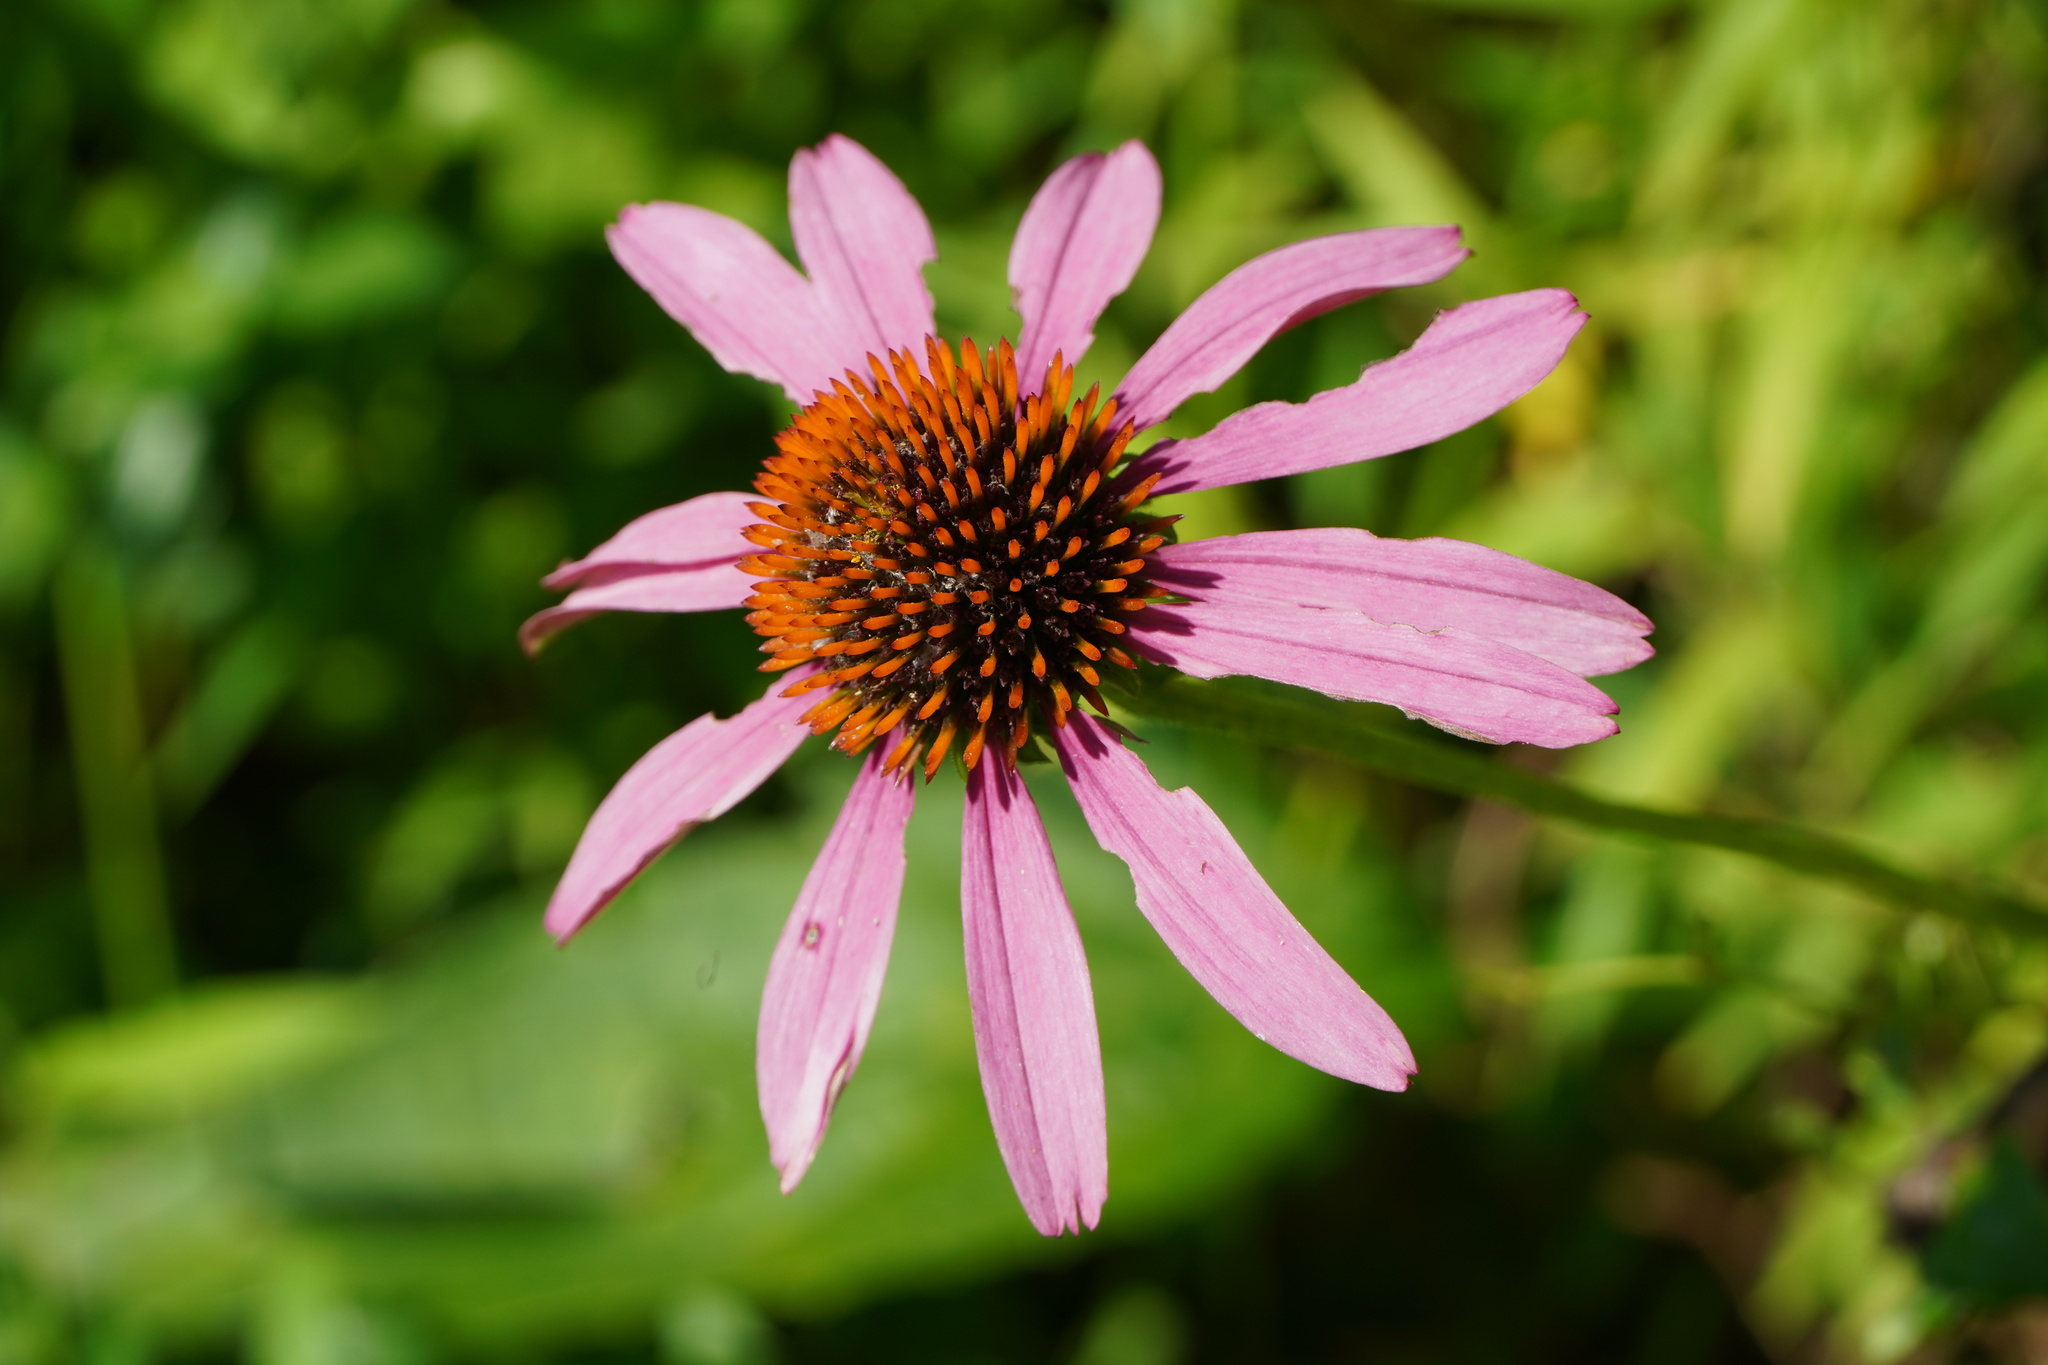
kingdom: Plantae
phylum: Tracheophyta
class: Magnoliopsida
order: Asterales
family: Asteraceae
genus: Echinacea
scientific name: Echinacea purpurea
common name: Broad-leaved purple coneflower
